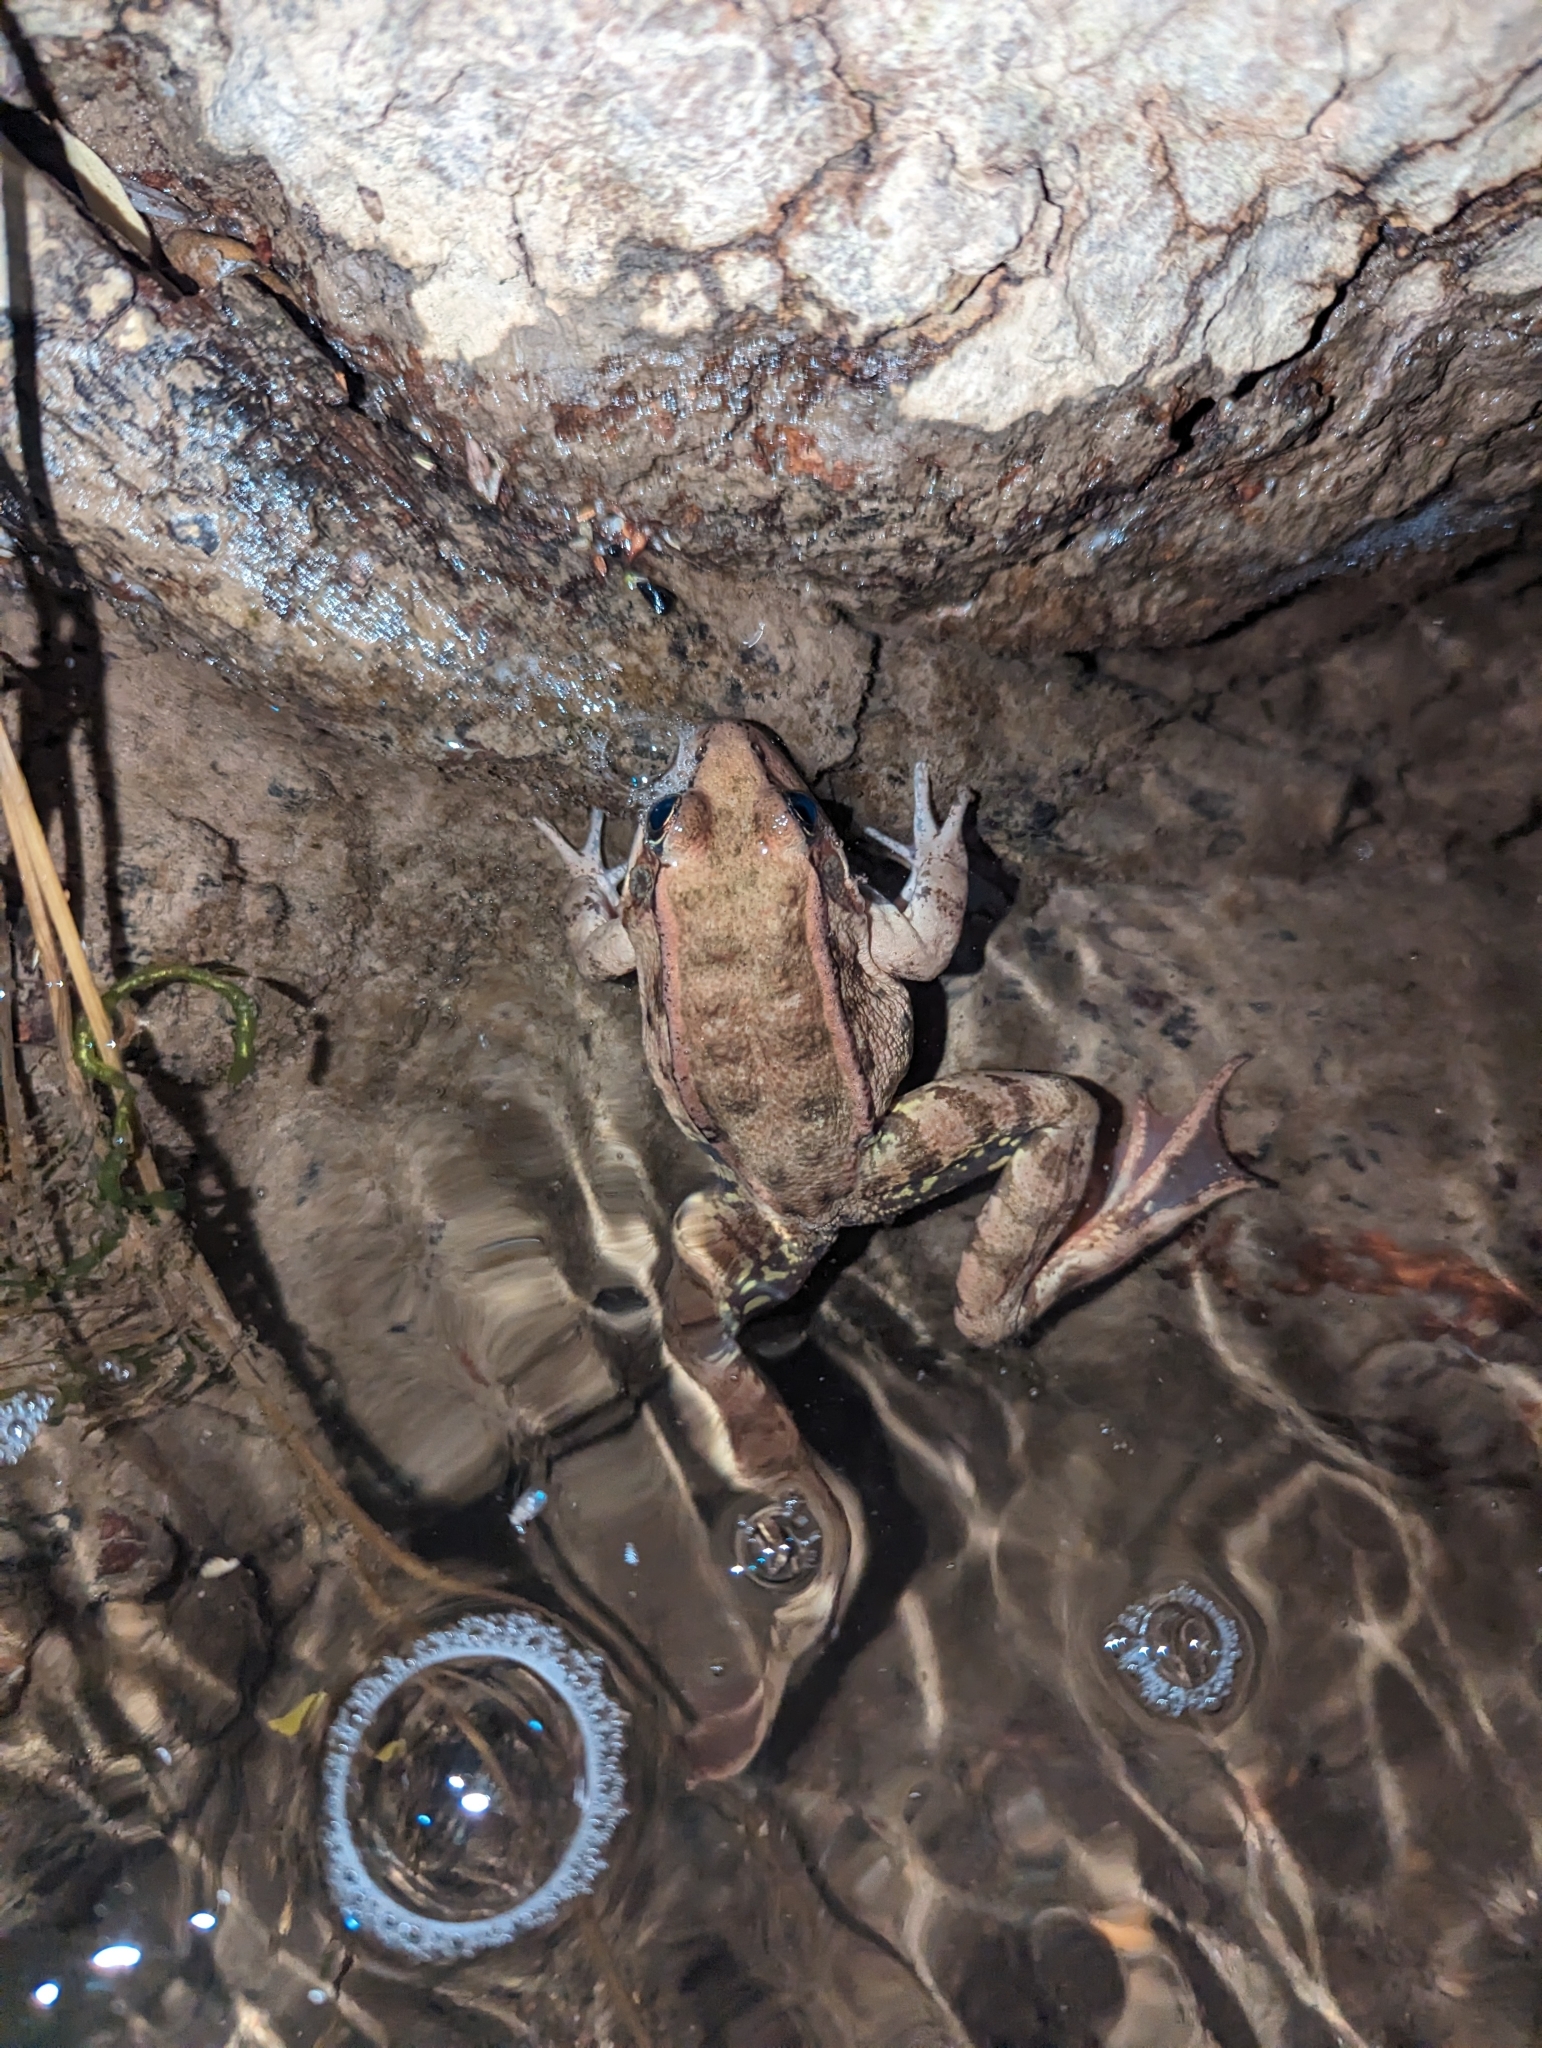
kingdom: Animalia
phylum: Chordata
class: Amphibia
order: Anura
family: Ranidae
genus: Rana
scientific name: Rana draytonii
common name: California red-legged frog
